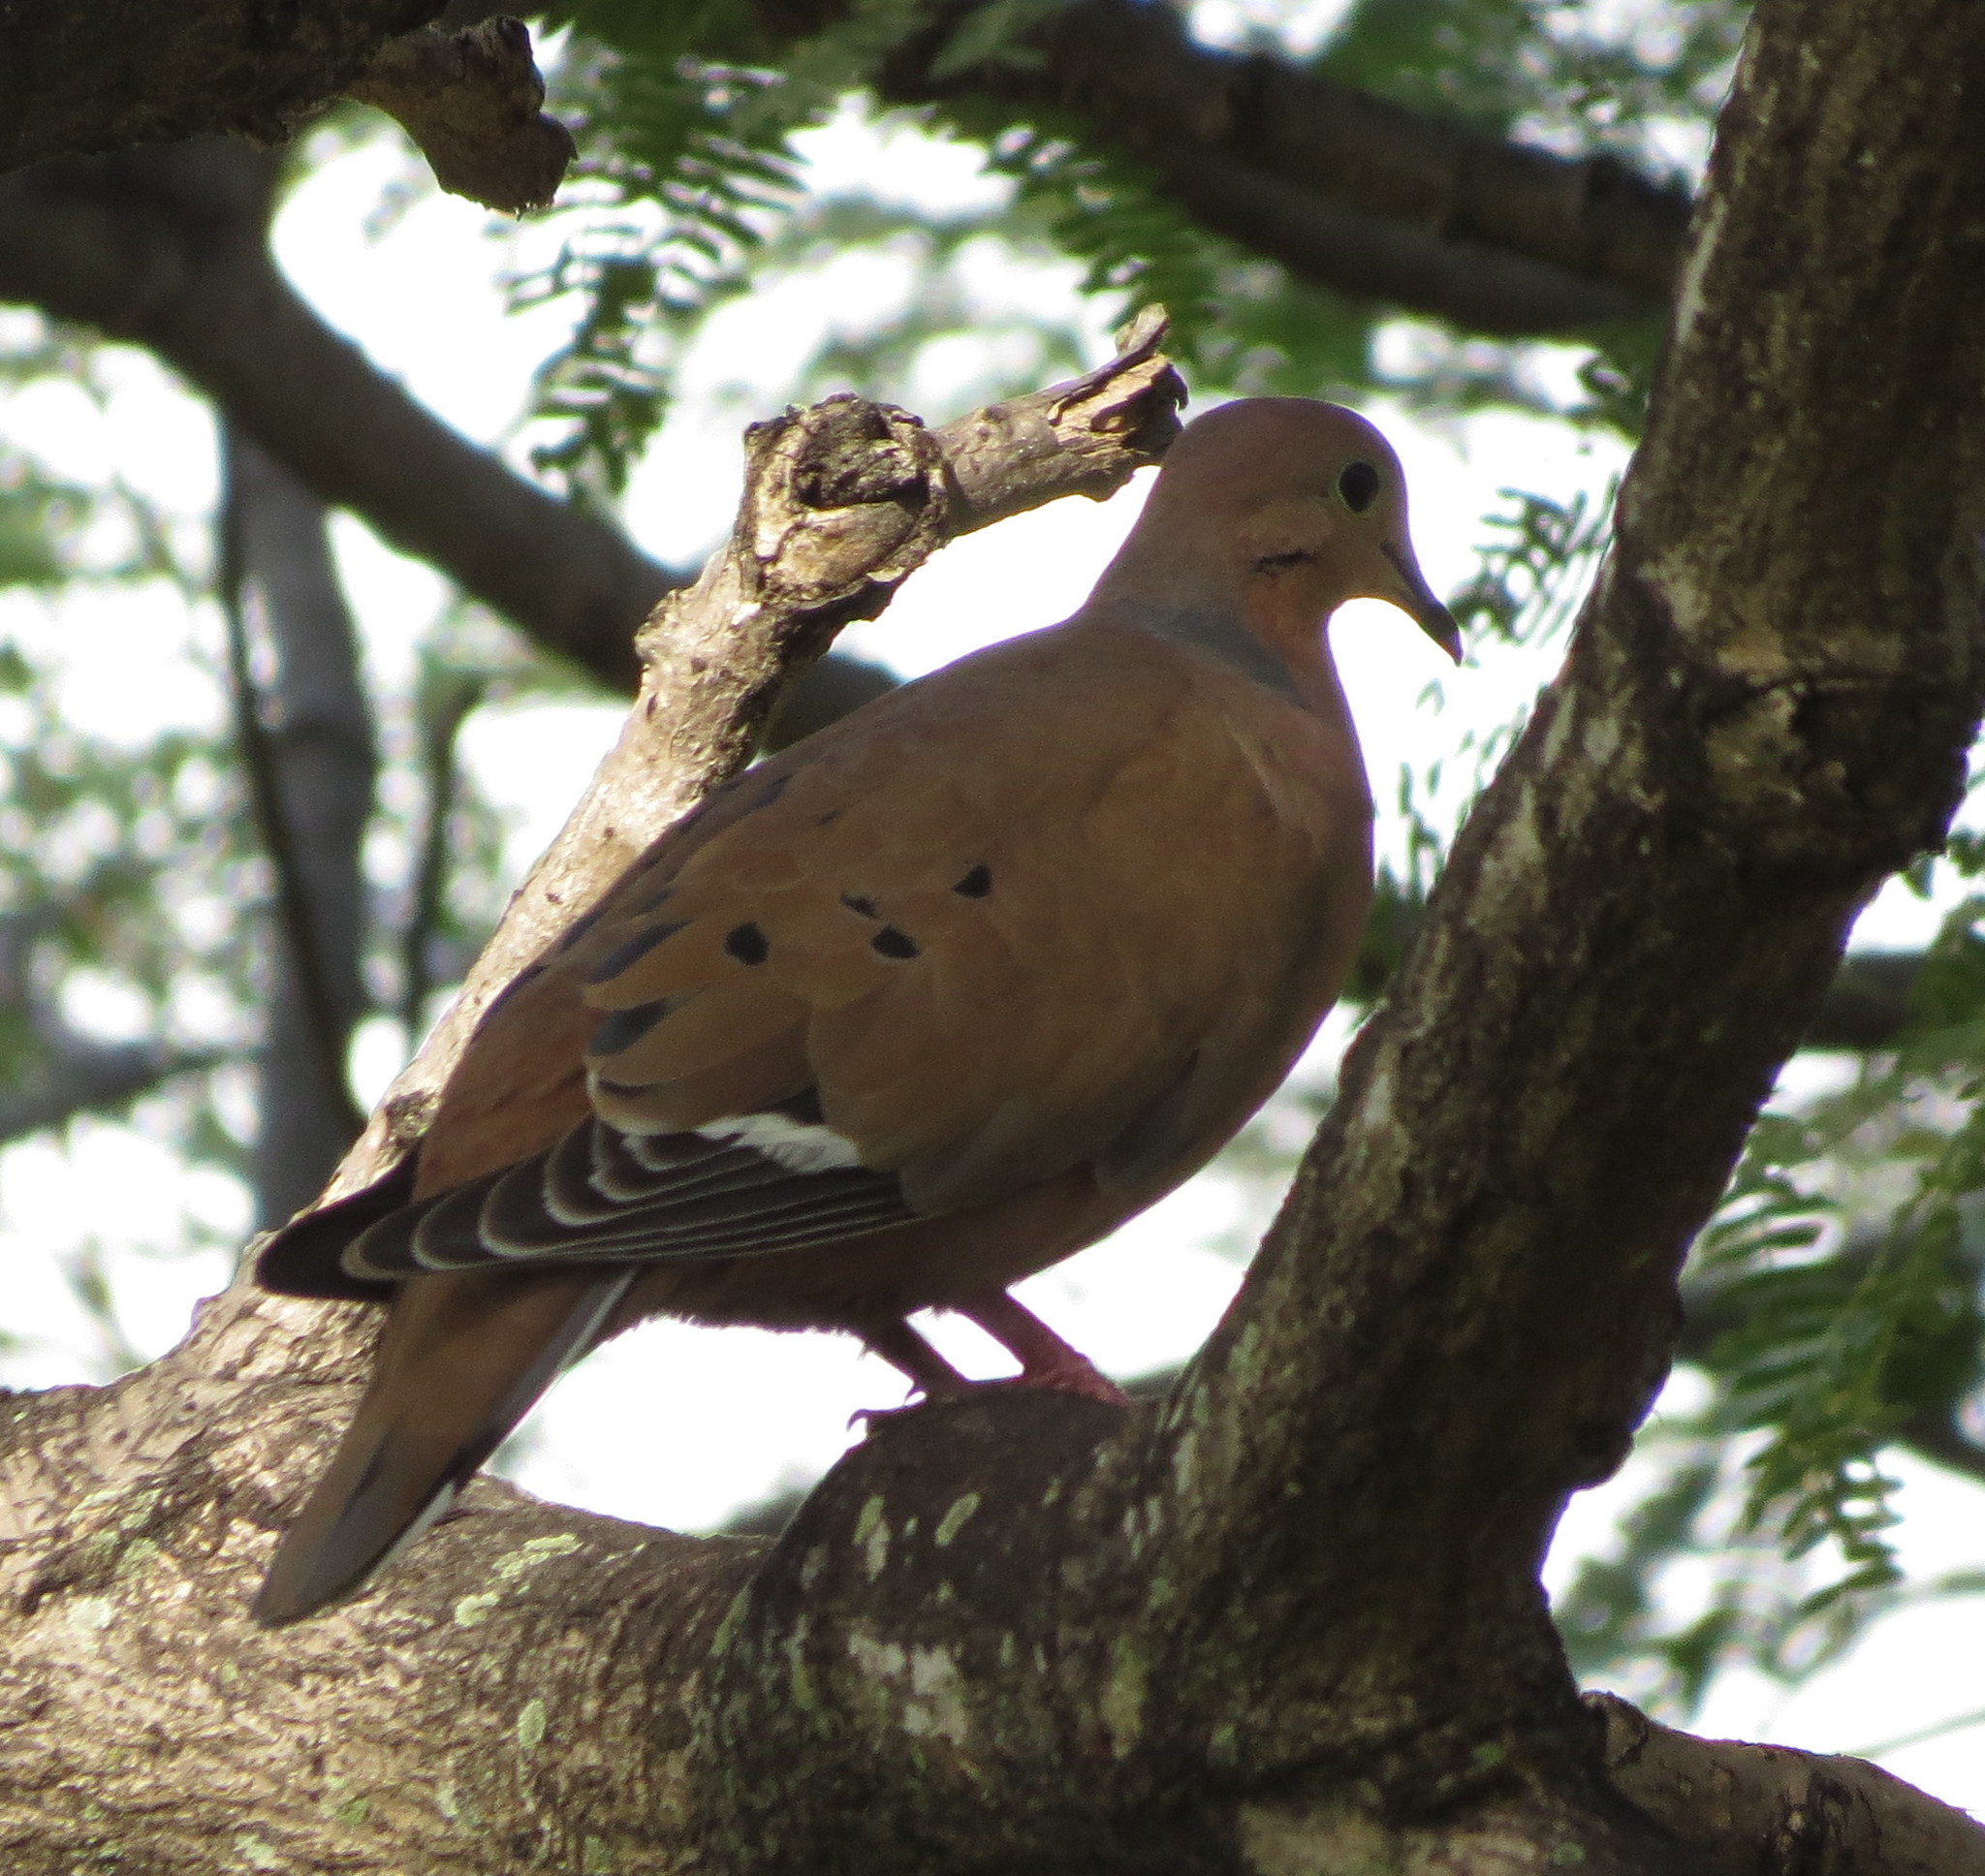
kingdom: Animalia
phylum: Chordata
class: Aves
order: Columbiformes
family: Columbidae
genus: Zenaida
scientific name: Zenaida aurita
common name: Zenaida dove
